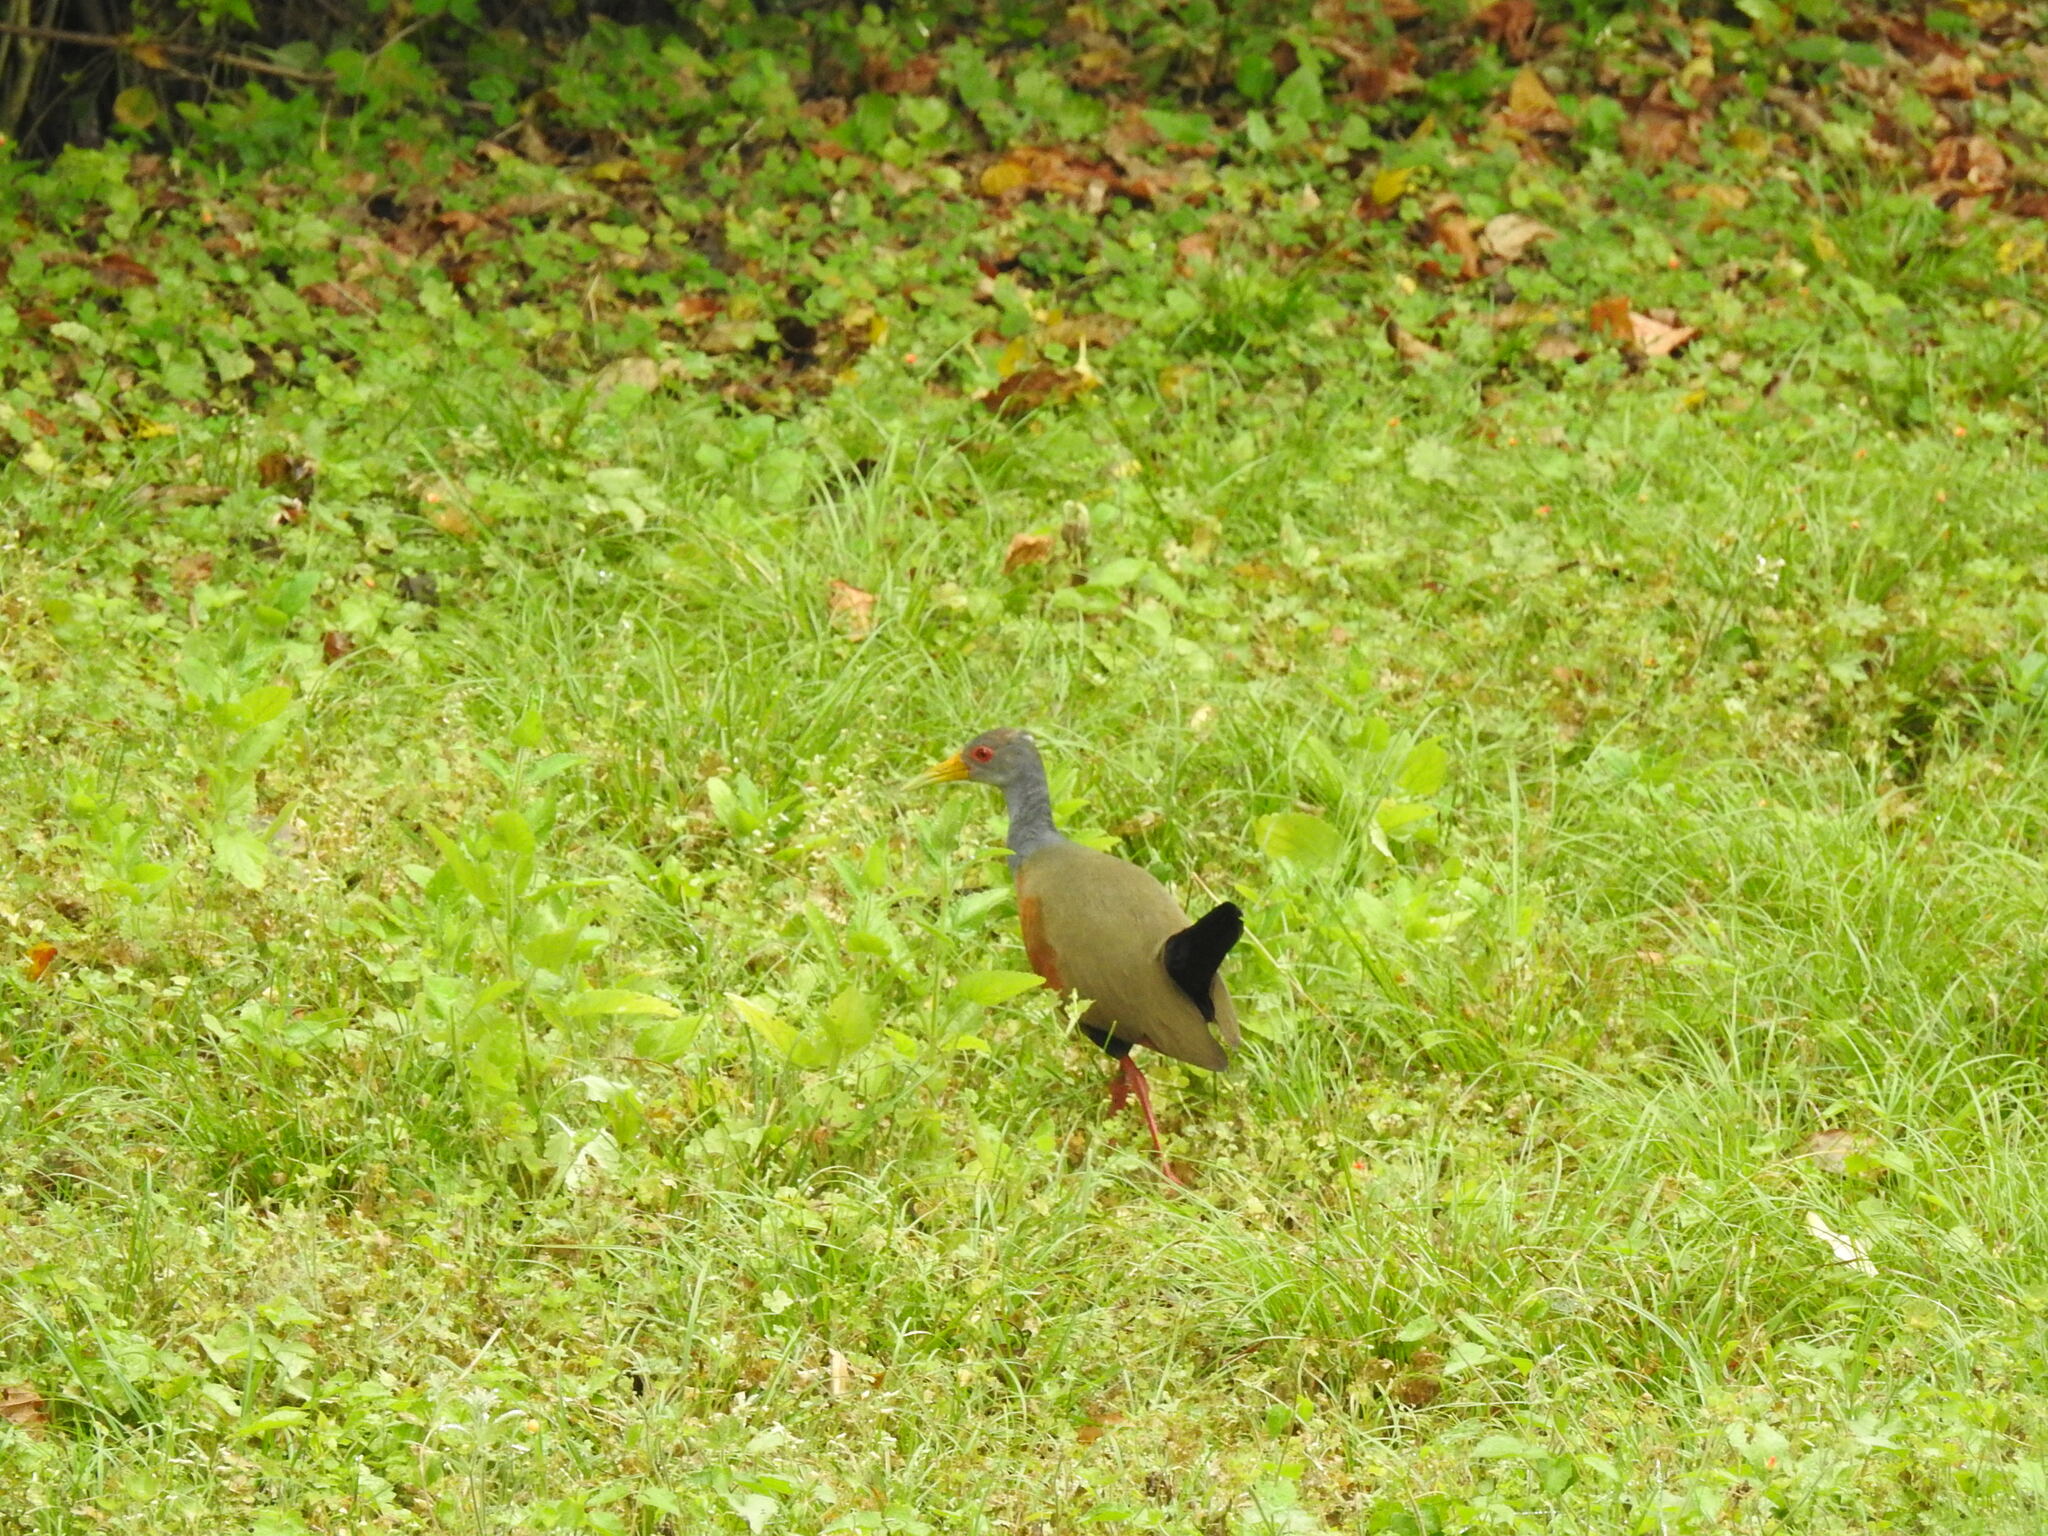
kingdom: Animalia
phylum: Chordata
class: Aves
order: Gruiformes
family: Rallidae
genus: Aramides
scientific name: Aramides cajanea
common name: Gray-necked wood-rail
